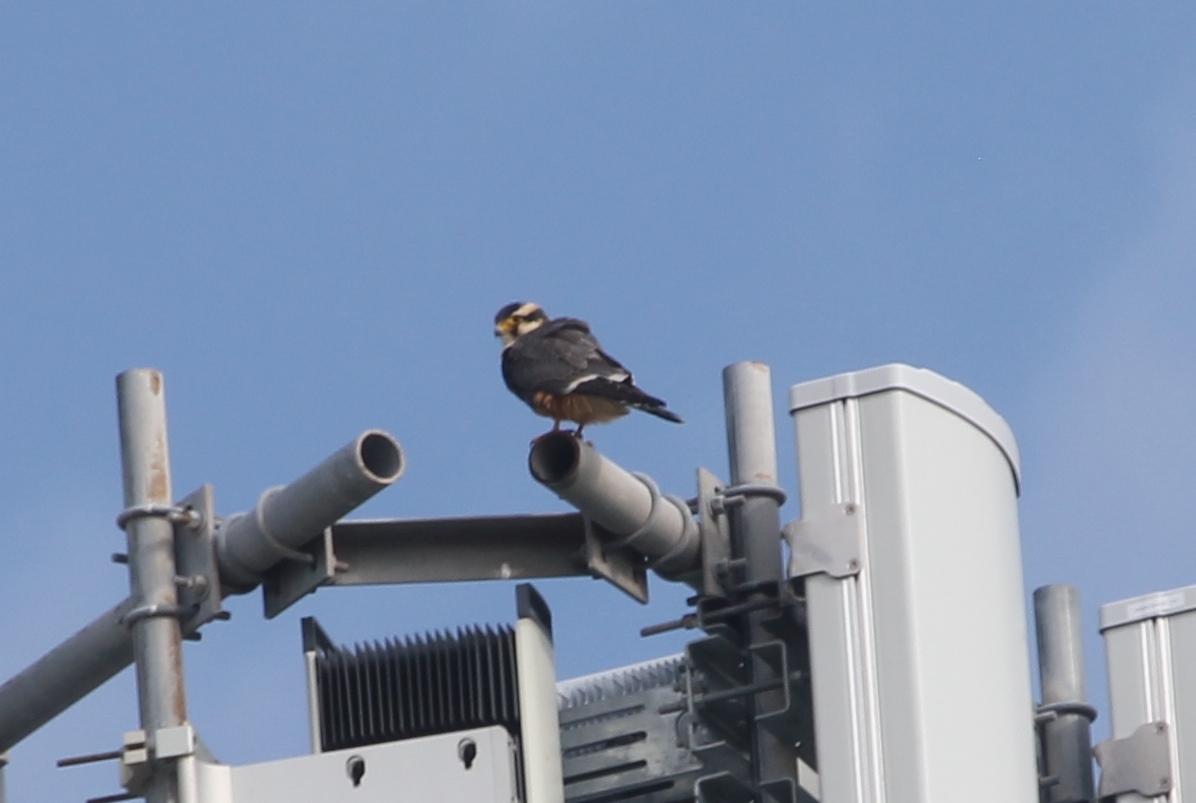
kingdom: Animalia
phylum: Chordata
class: Aves
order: Falconiformes
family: Falconidae
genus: Falco
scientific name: Falco femoralis
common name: Aplomado falcon
